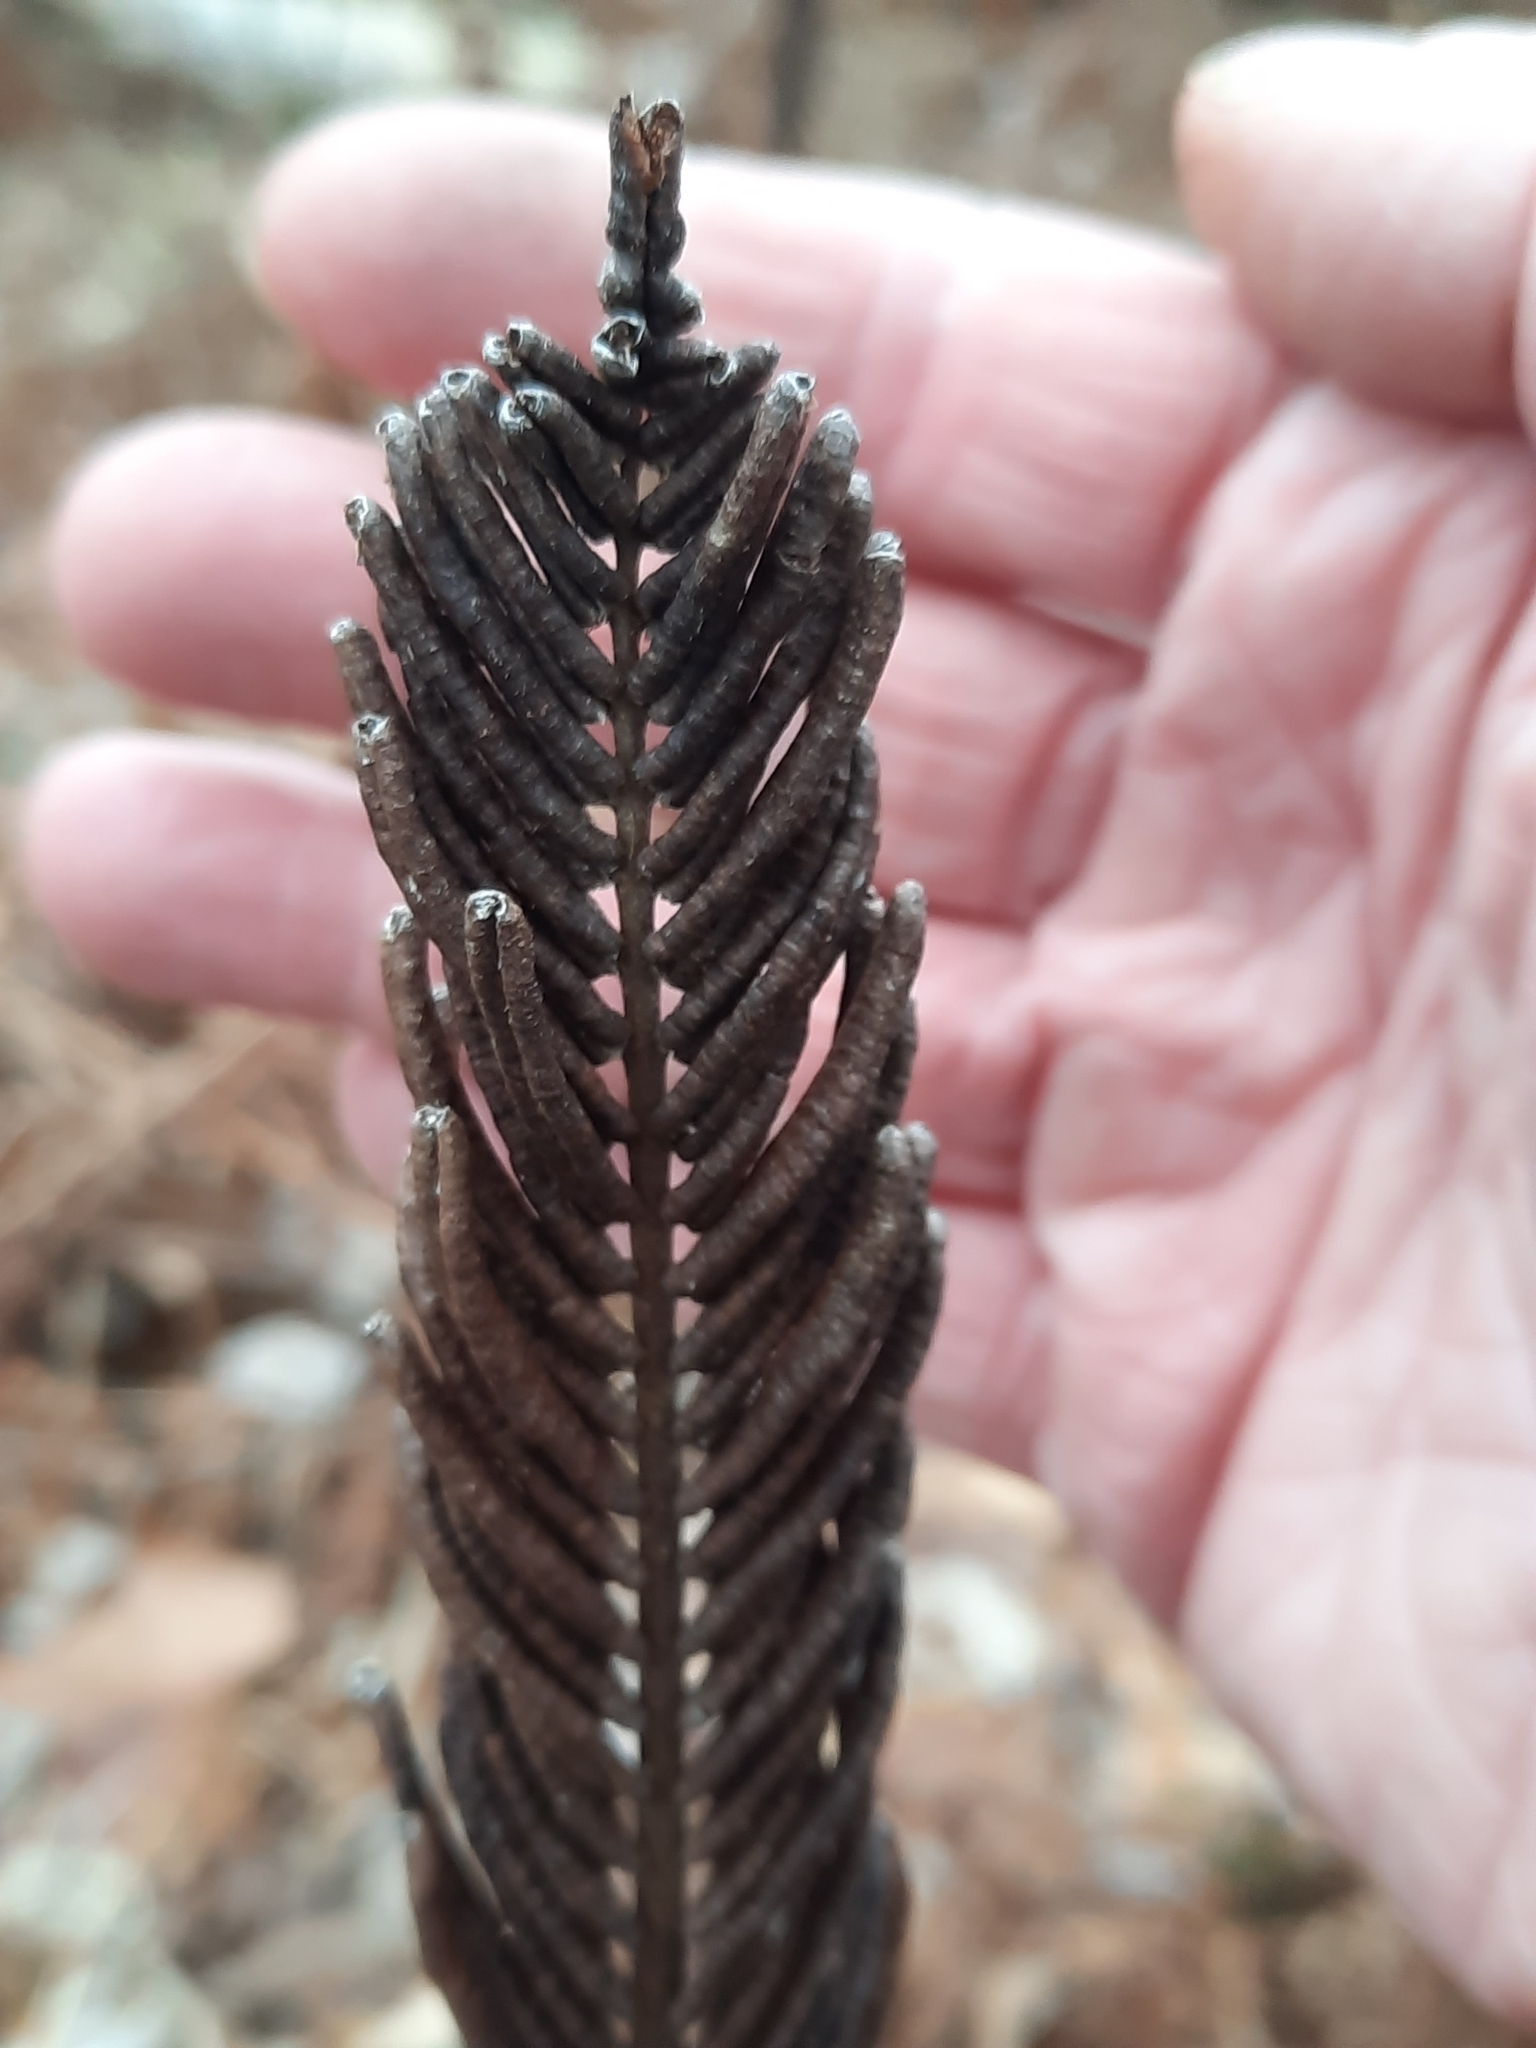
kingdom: Plantae
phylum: Tracheophyta
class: Polypodiopsida
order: Polypodiales
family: Onocleaceae
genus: Matteuccia
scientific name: Matteuccia struthiopteris
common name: Ostrich fern
